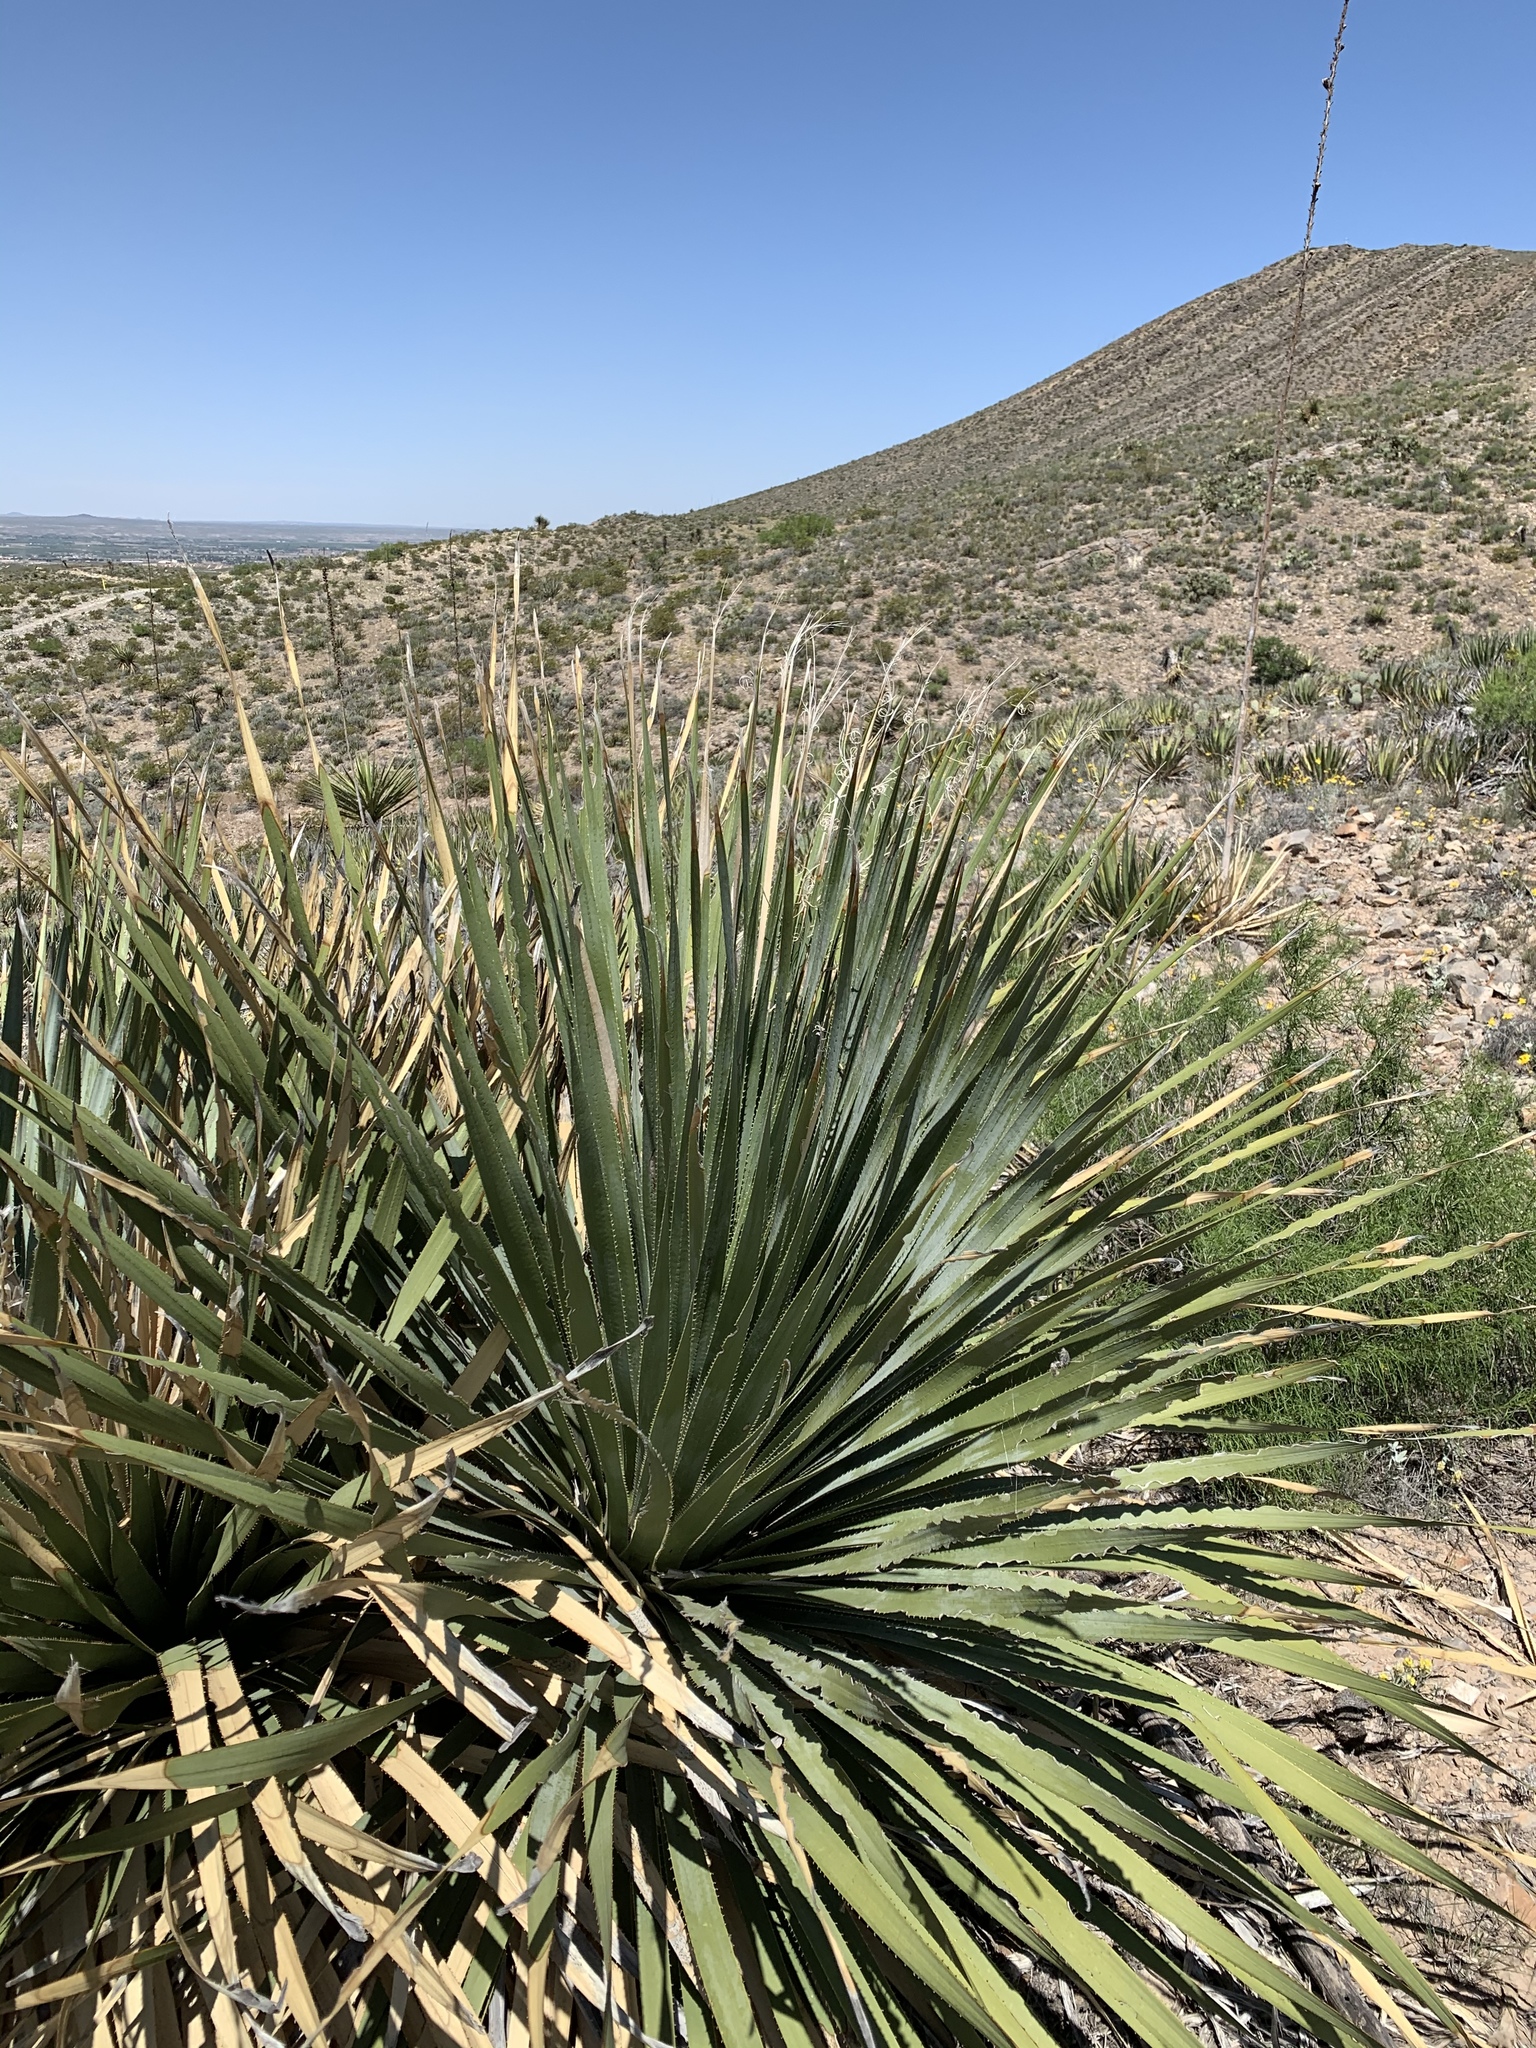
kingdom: Plantae
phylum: Tracheophyta
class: Liliopsida
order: Asparagales
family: Asparagaceae
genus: Dasylirion
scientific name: Dasylirion wheeleri
